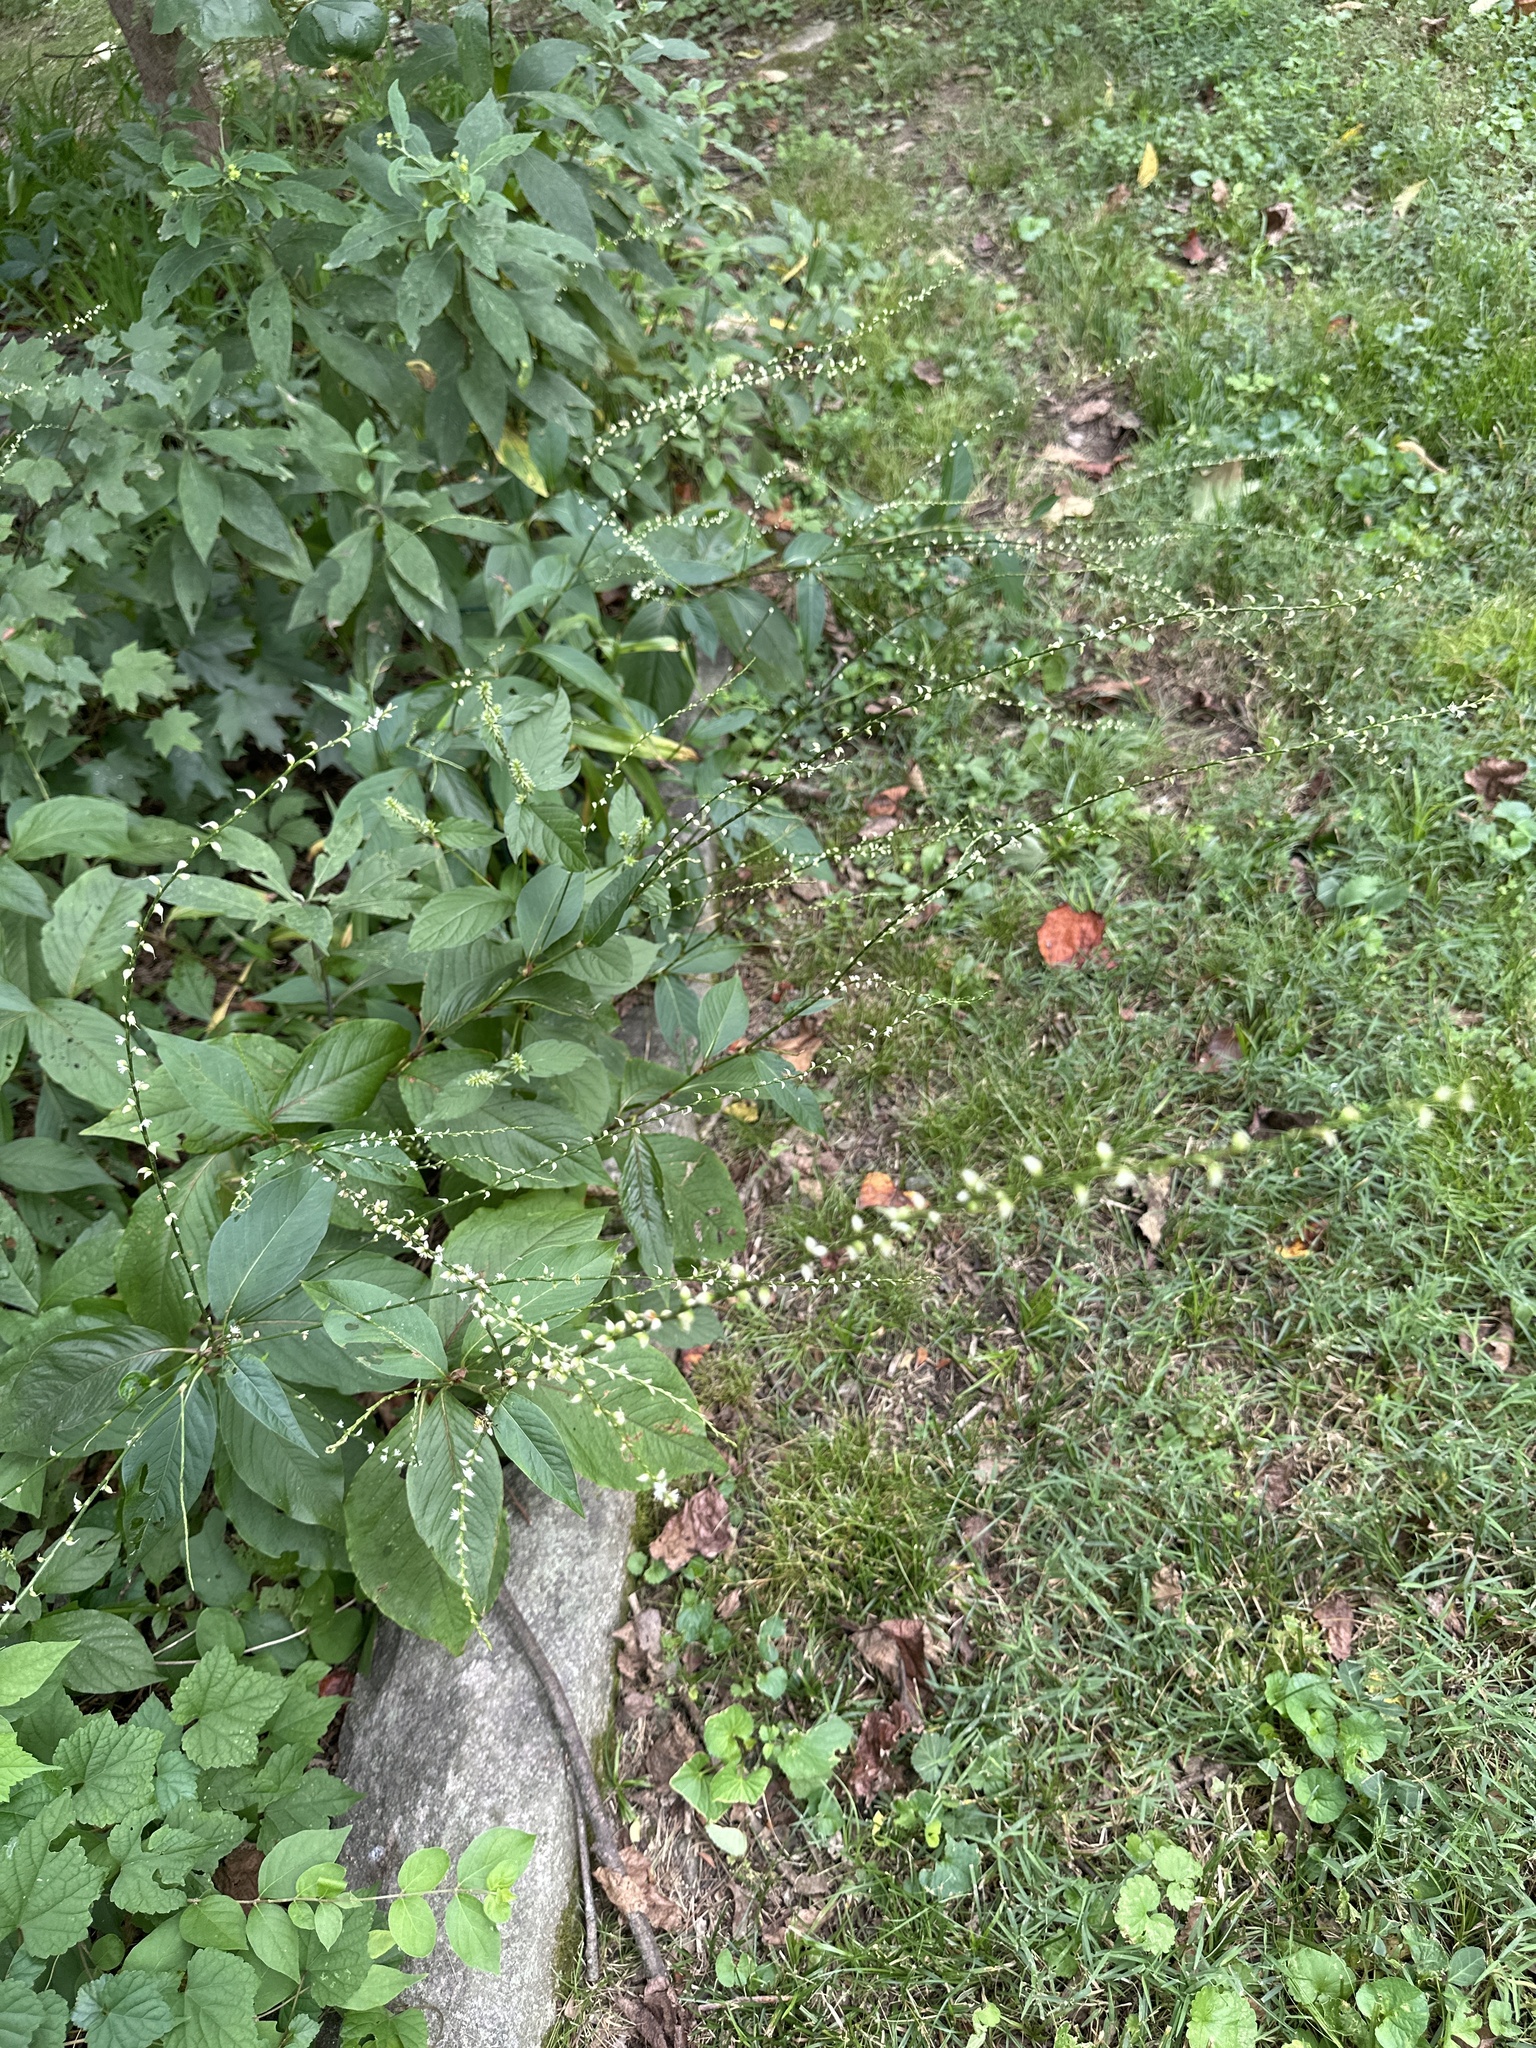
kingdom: Plantae
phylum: Tracheophyta
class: Magnoliopsida
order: Caryophyllales
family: Polygonaceae
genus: Persicaria
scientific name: Persicaria virginiana
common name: Jumpseed
